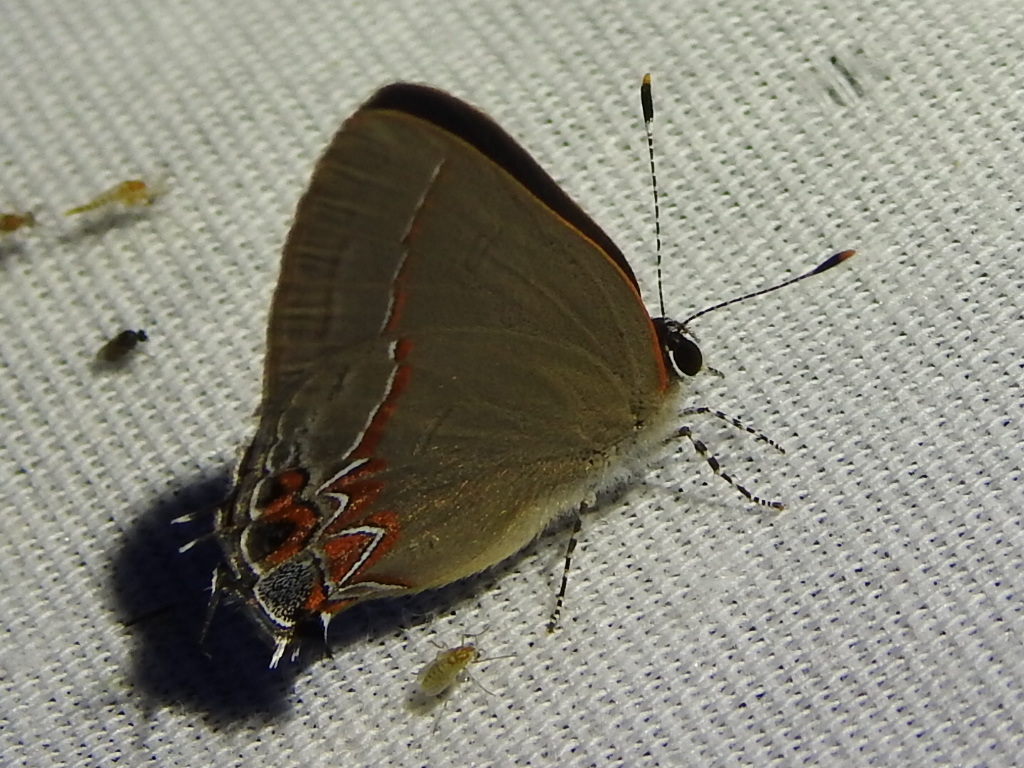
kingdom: Animalia
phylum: Arthropoda
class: Insecta
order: Lepidoptera
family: Lycaenidae
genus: Calycopis
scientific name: Calycopis isobeon
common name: Dusky-blue groundstreak
